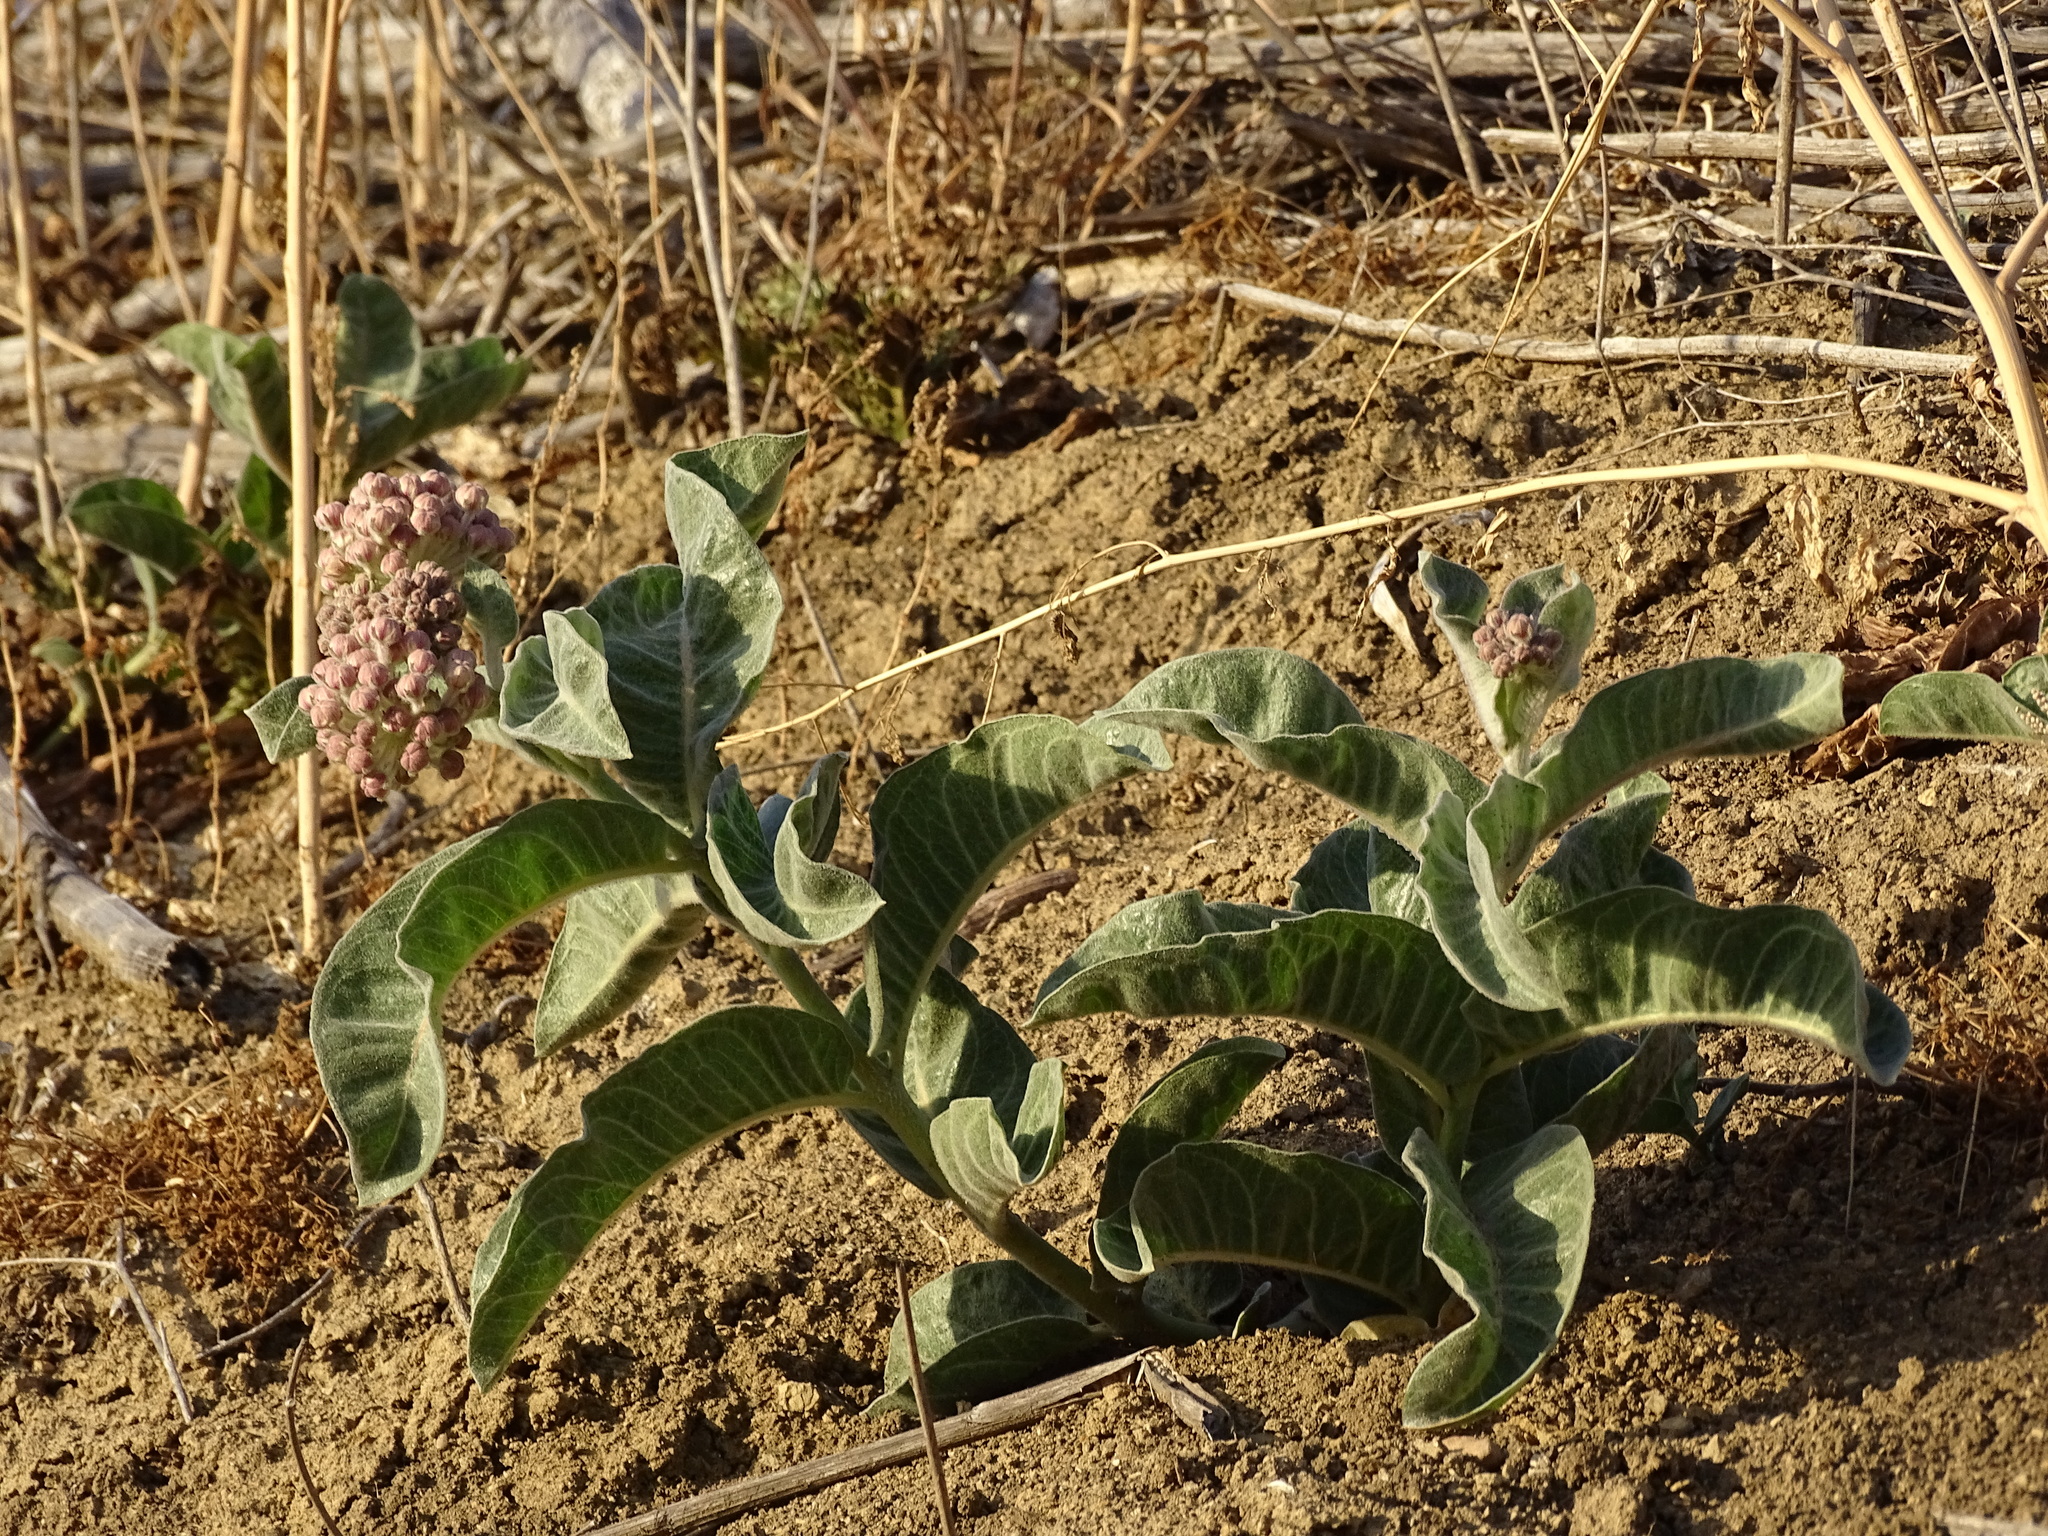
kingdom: Plantae
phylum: Tracheophyta
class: Magnoliopsida
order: Gentianales
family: Apocynaceae
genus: Asclepias
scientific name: Asclepias eriocarpa
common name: Indian milkweed
